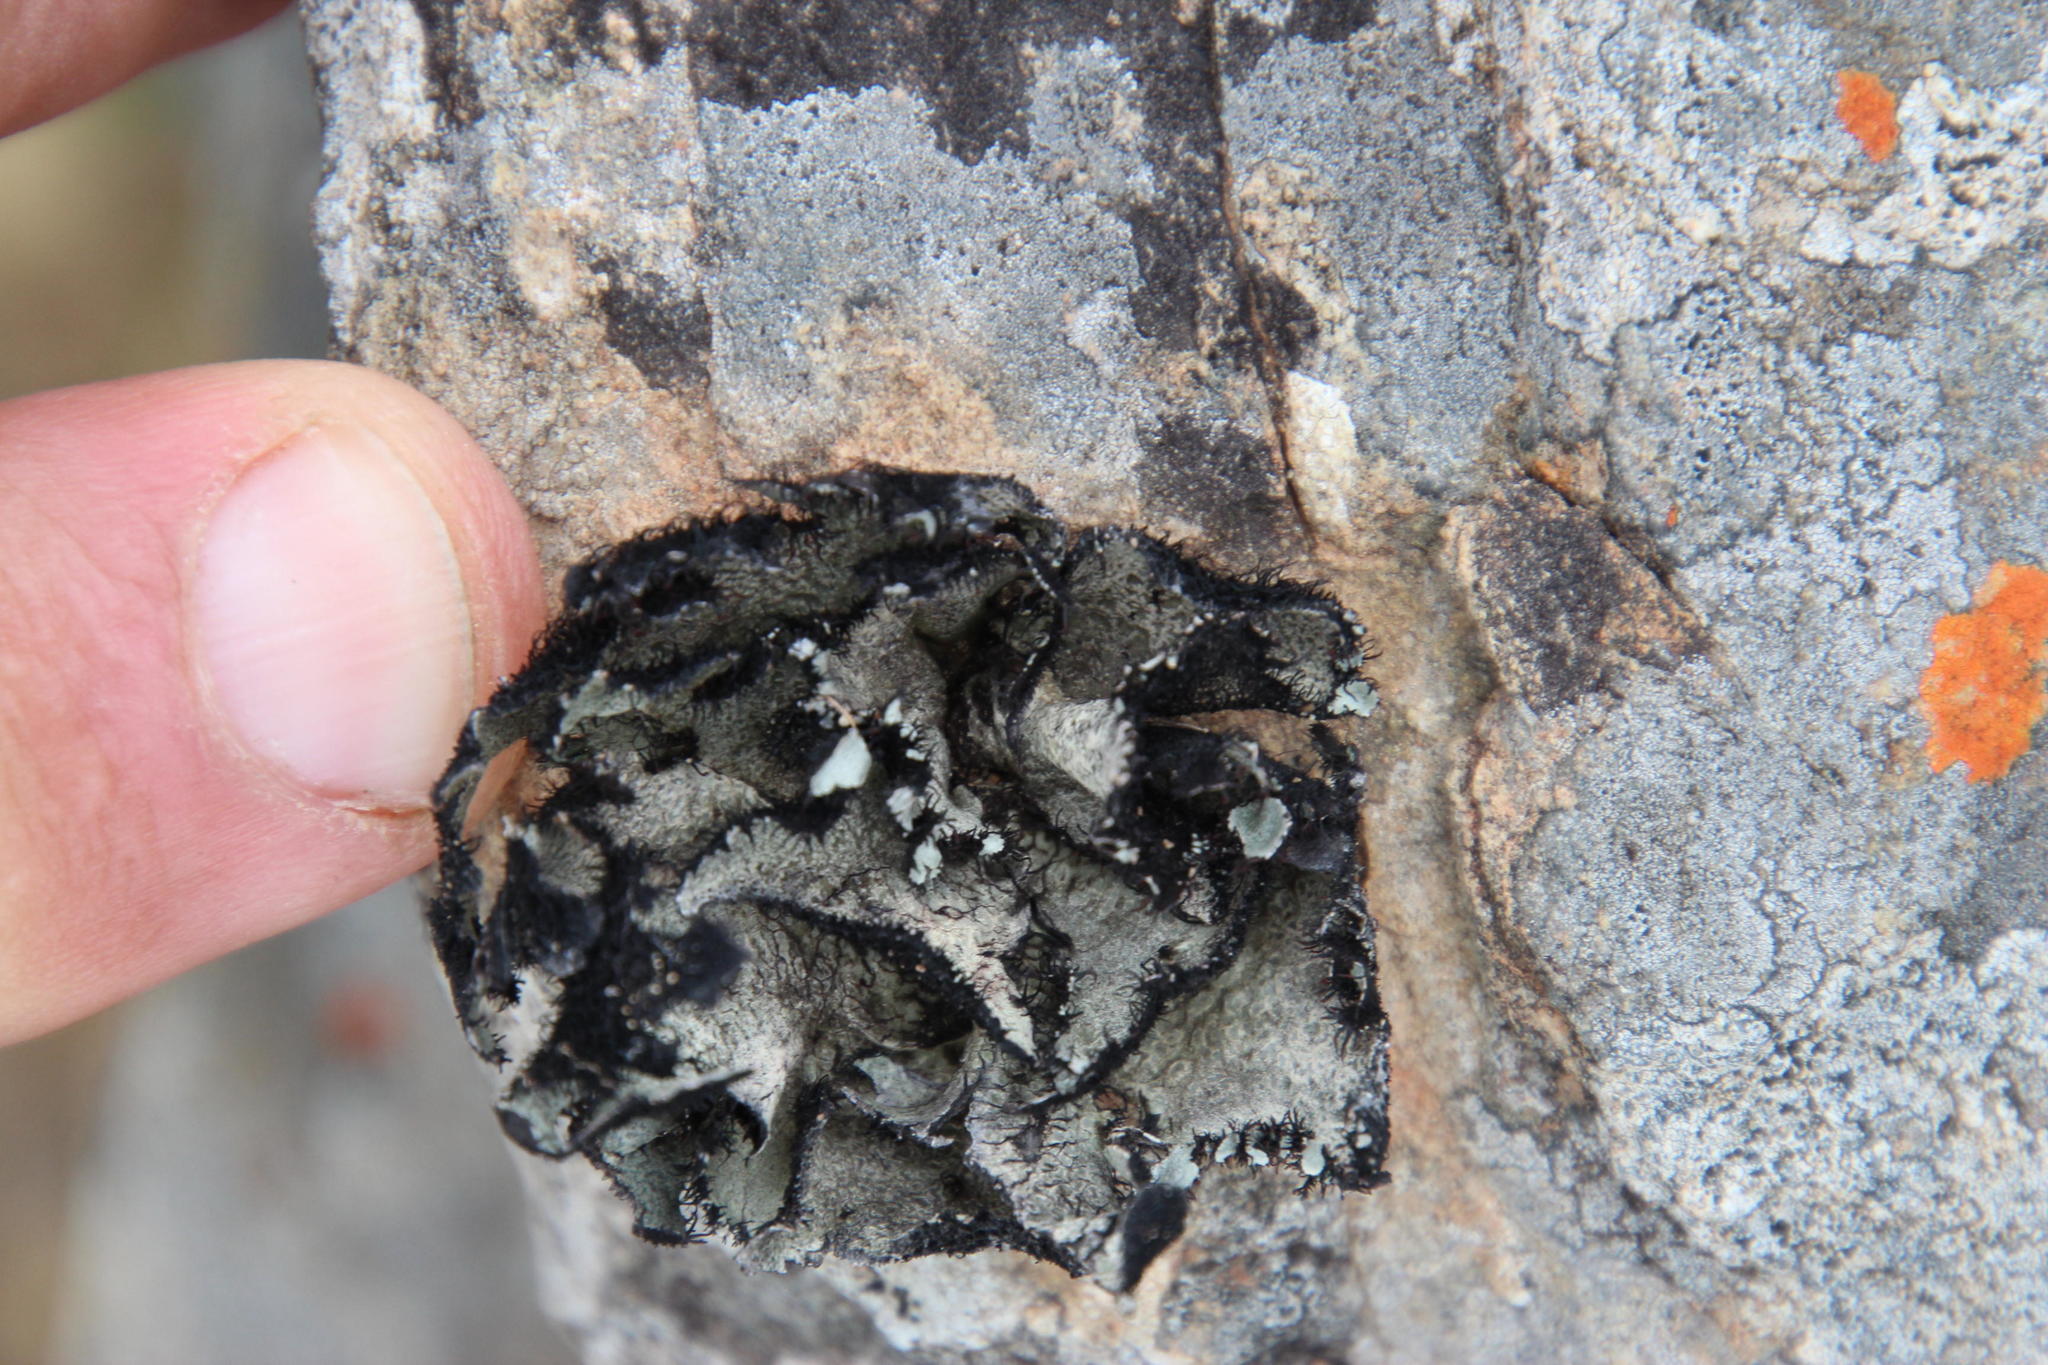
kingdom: Fungi
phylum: Ascomycota
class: Lecanoromycetes
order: Lecanorales
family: Parmeliaceae
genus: Xanthoparmelia
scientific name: Xanthoparmelia hottentotta
